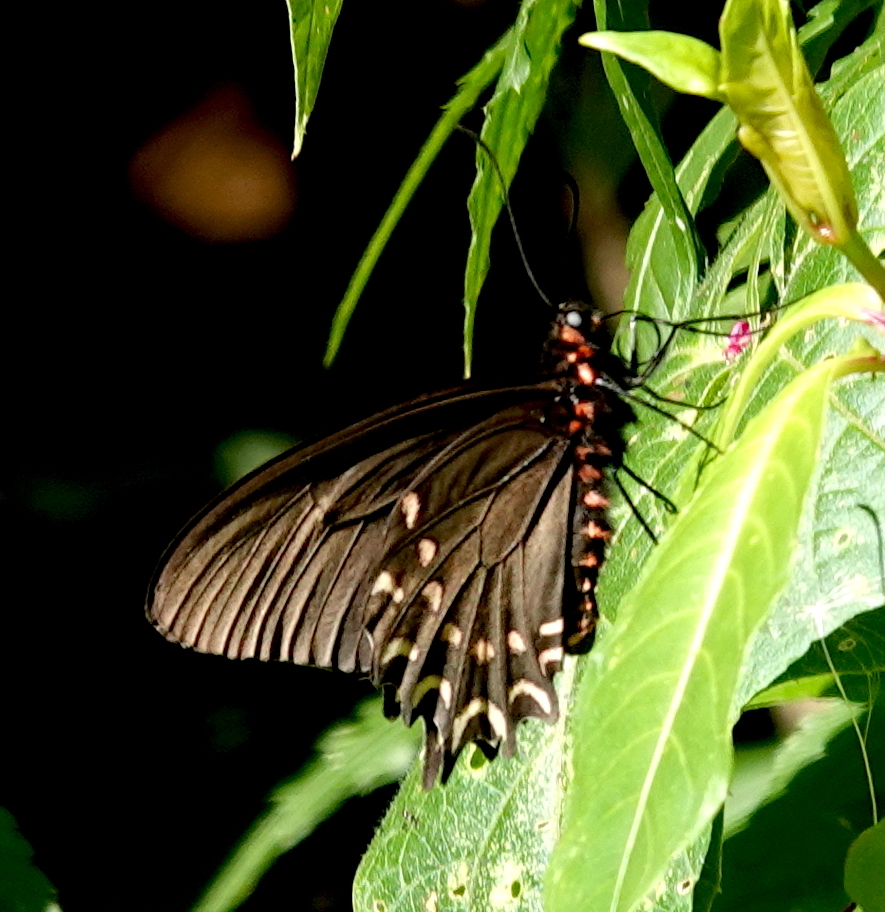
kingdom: Animalia
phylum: Arthropoda
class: Insecta
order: Lepidoptera
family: Papilionidae
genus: Parides
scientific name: Parides photinus
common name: Pink-spotted cattleheart
